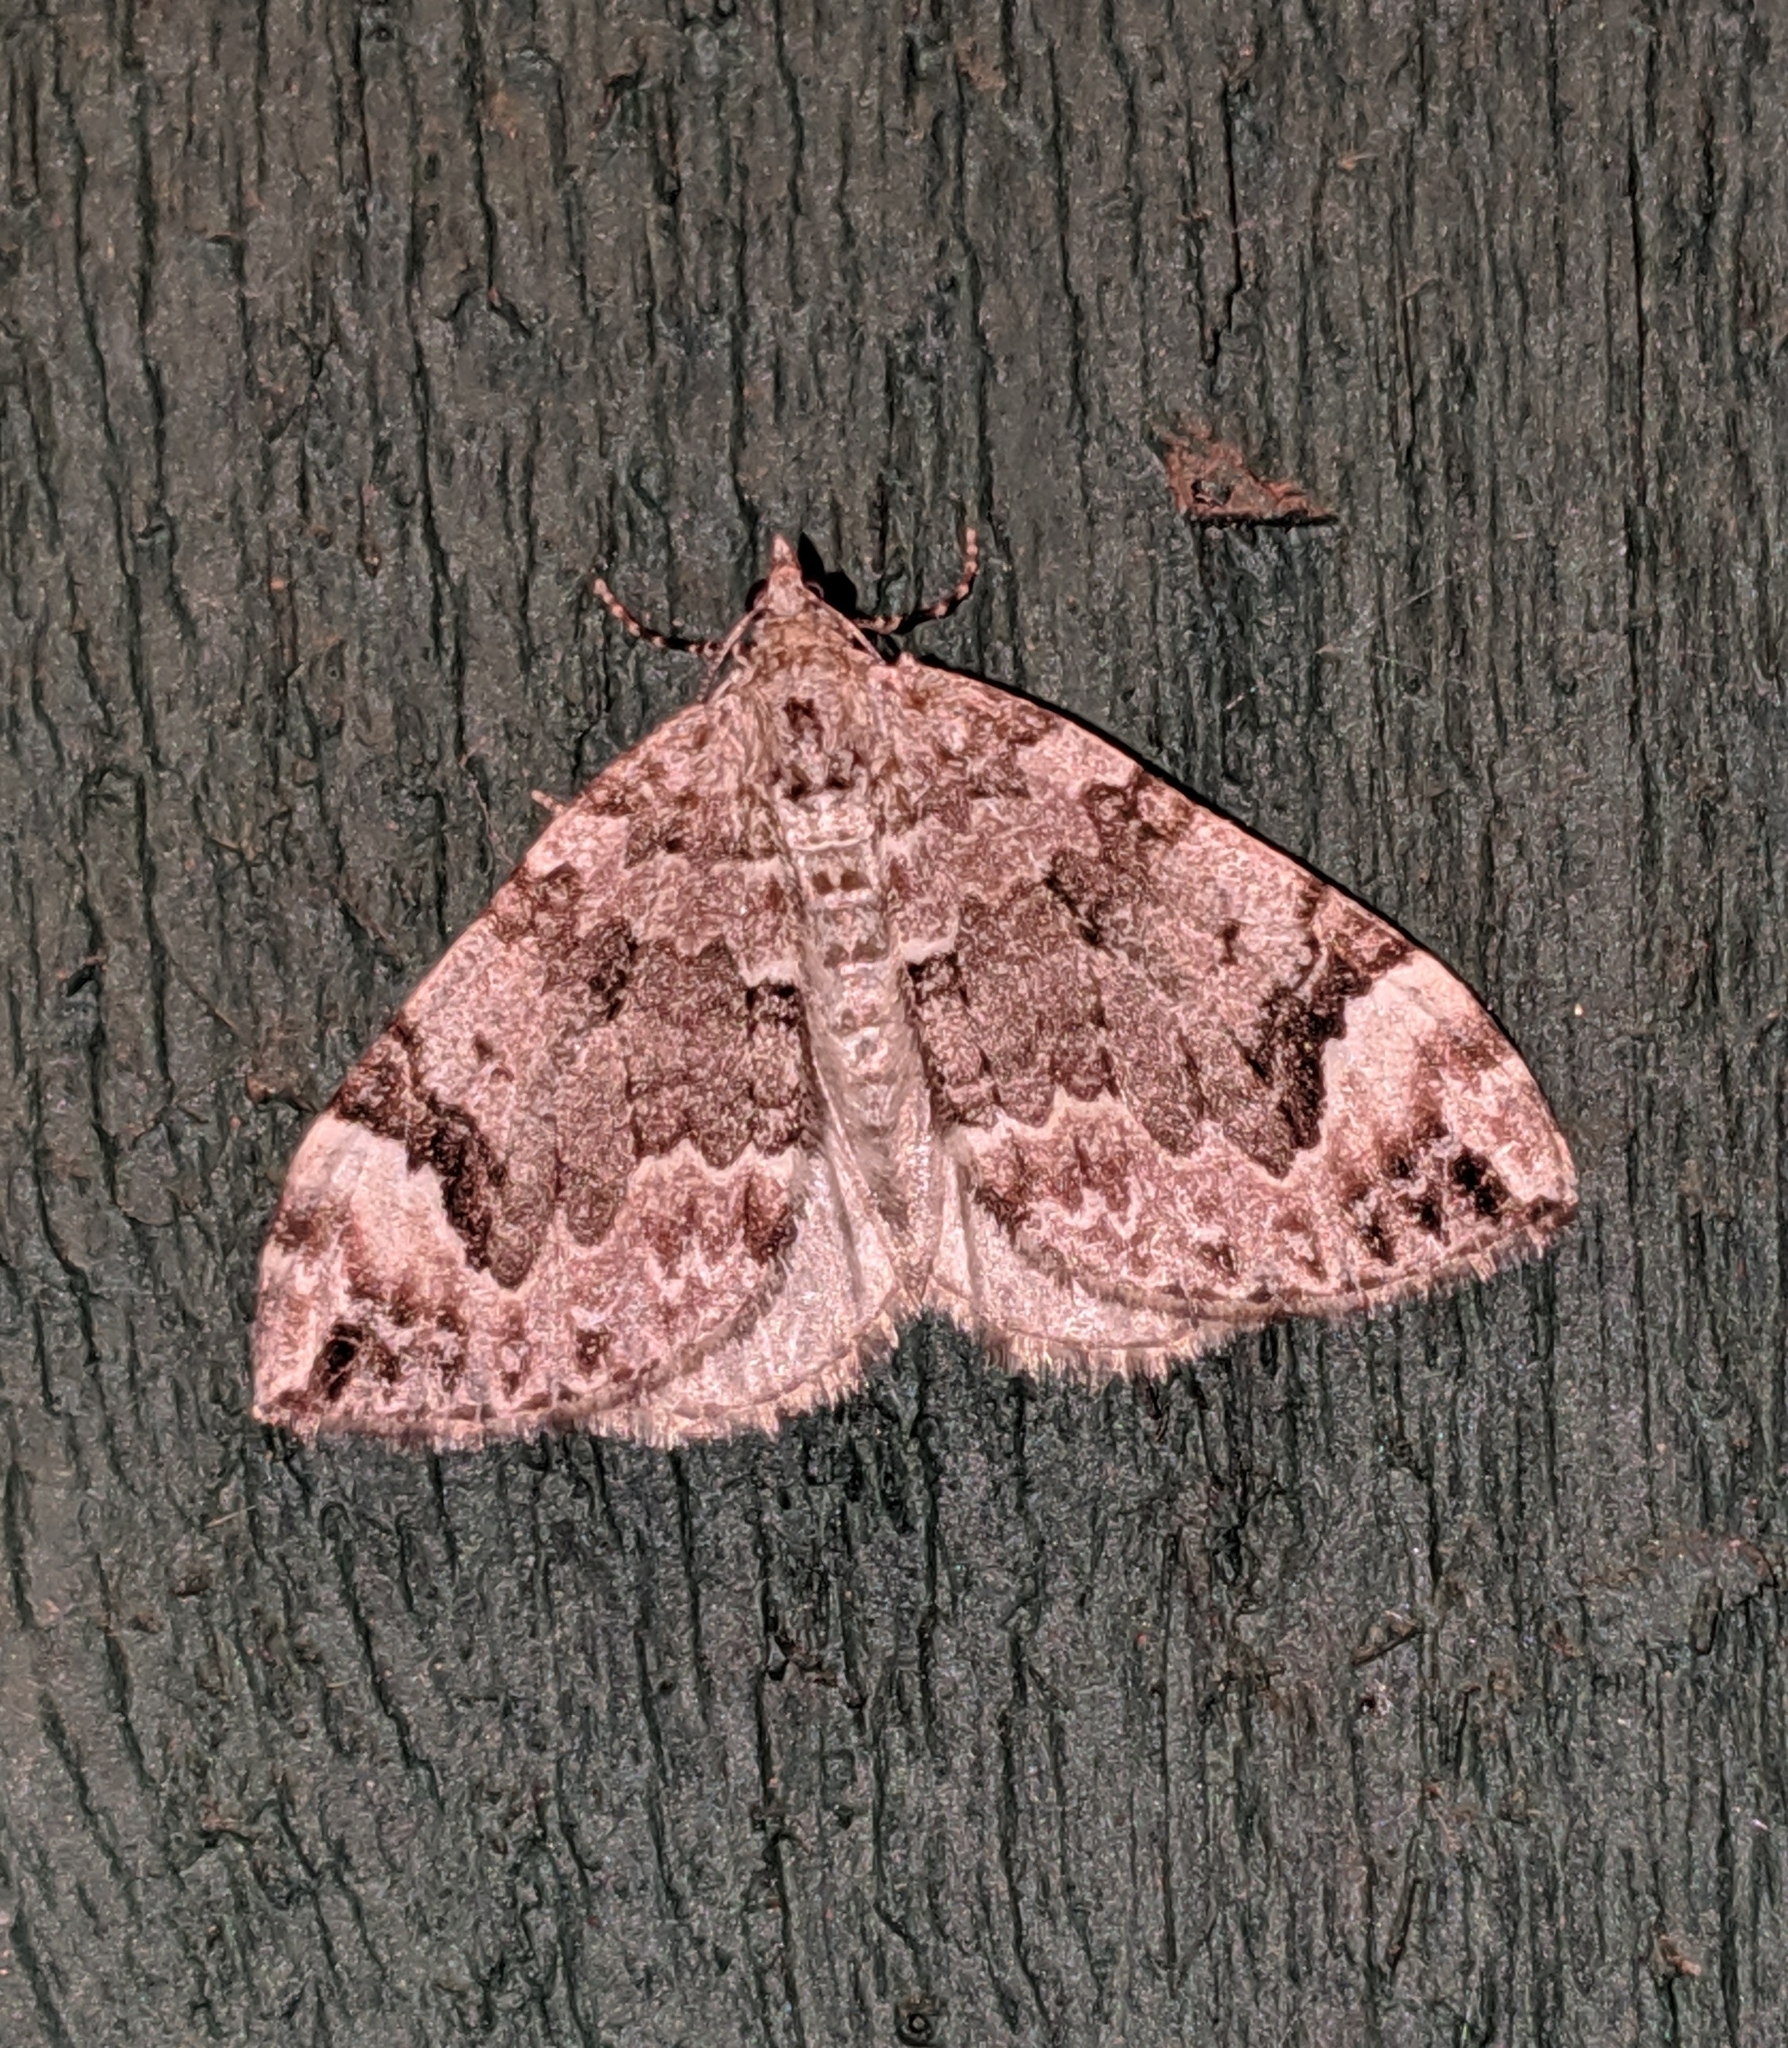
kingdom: Animalia
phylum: Arthropoda
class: Insecta
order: Lepidoptera
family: Geometridae
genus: Dysstroma
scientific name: Dysstroma citrata
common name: Dark marbled carpet
